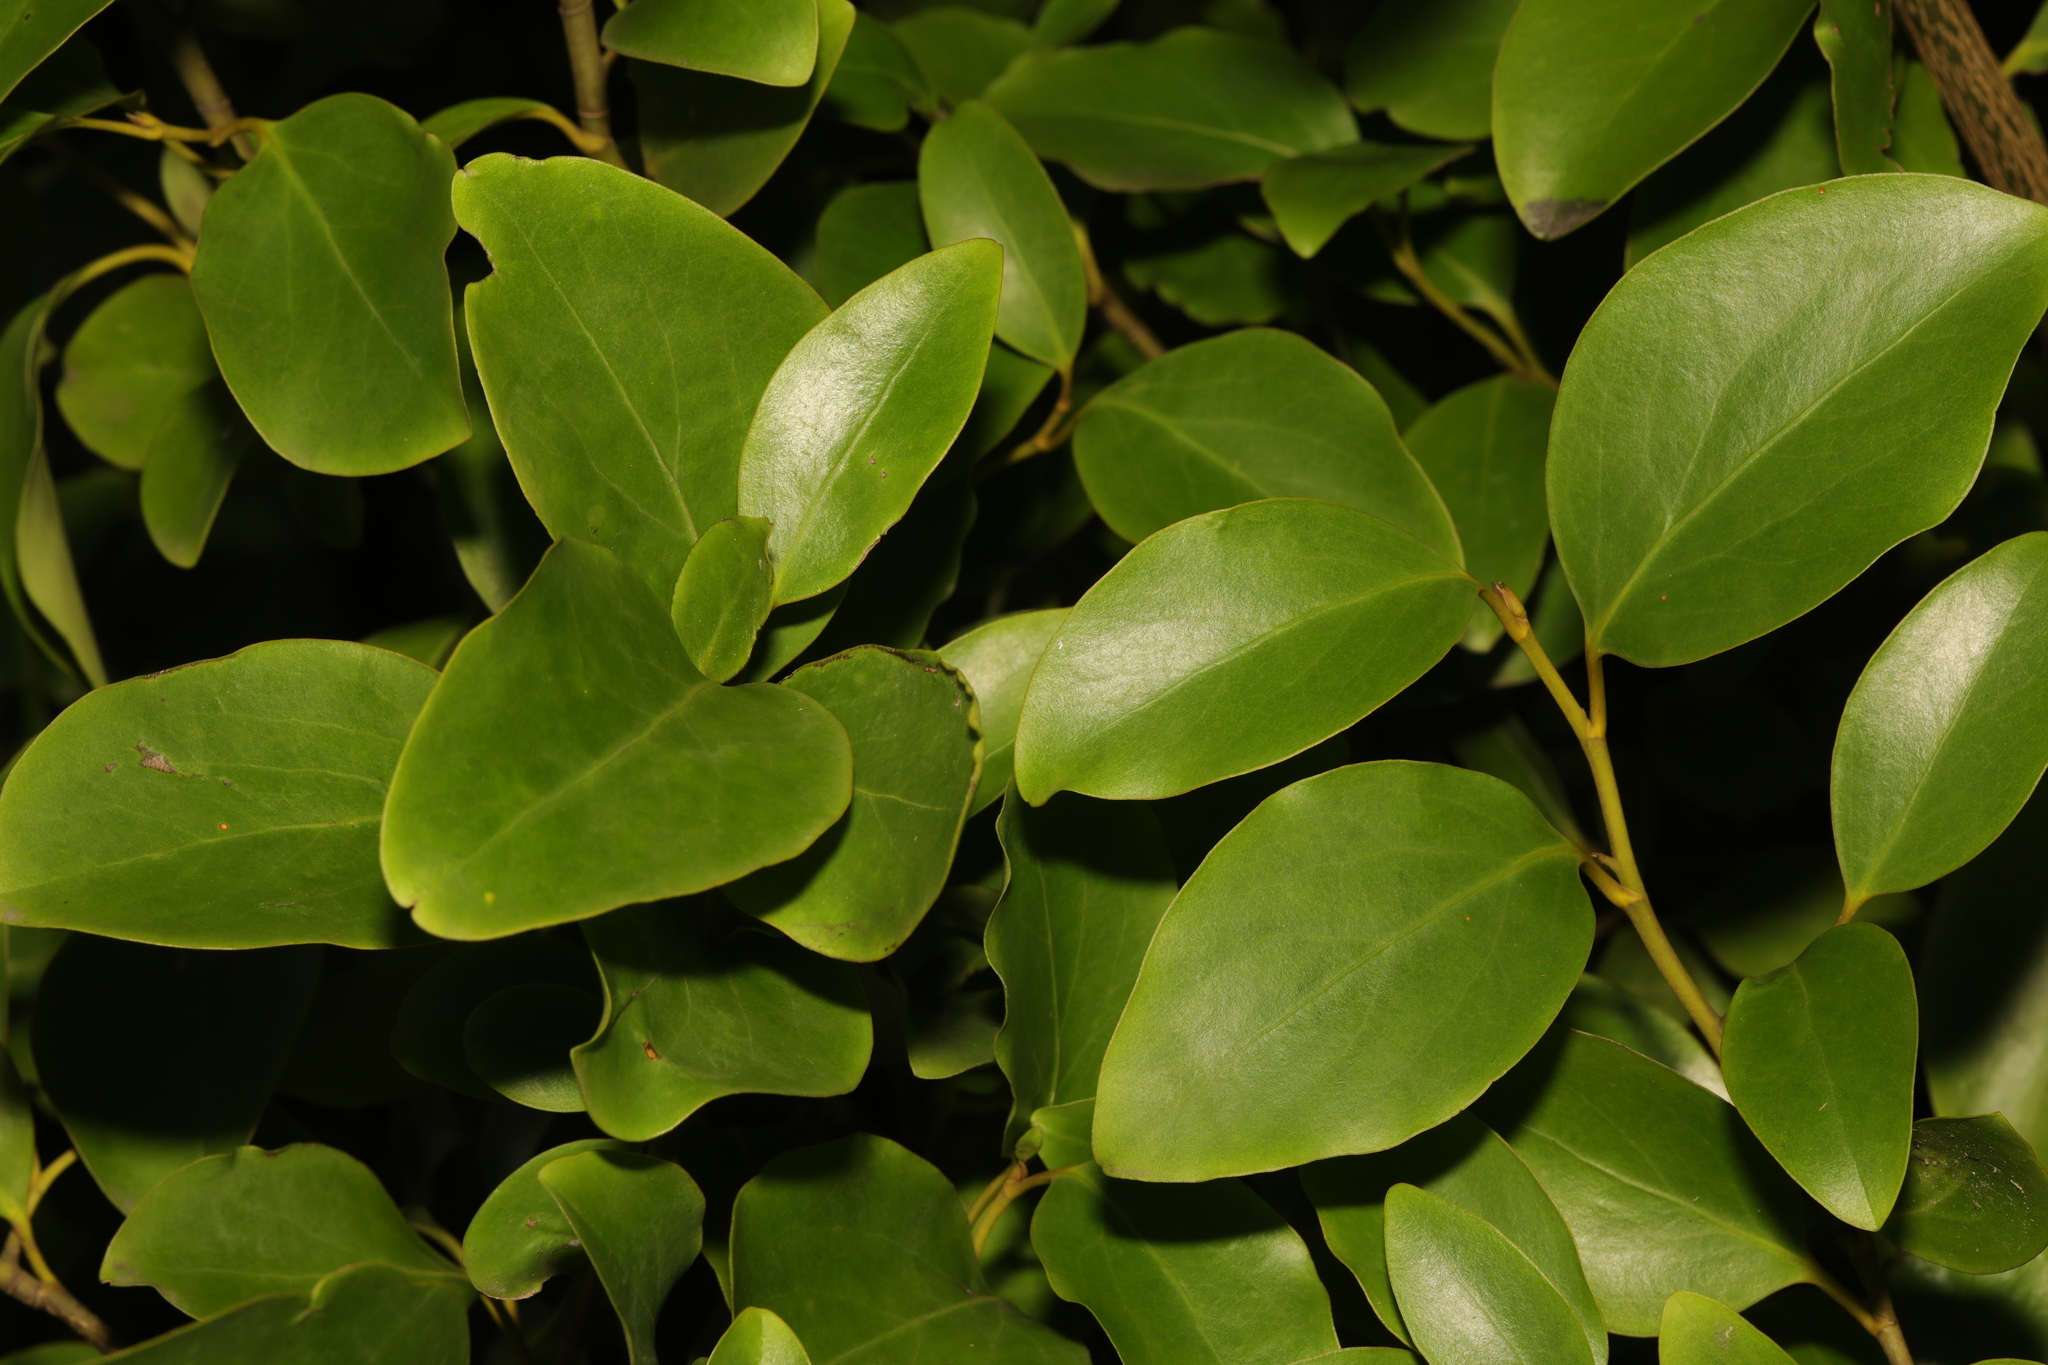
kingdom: Plantae
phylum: Tracheophyta
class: Magnoliopsida
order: Apiales
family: Griseliniaceae
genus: Griselinia
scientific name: Griselinia littoralis
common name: New zealand broadleaf
